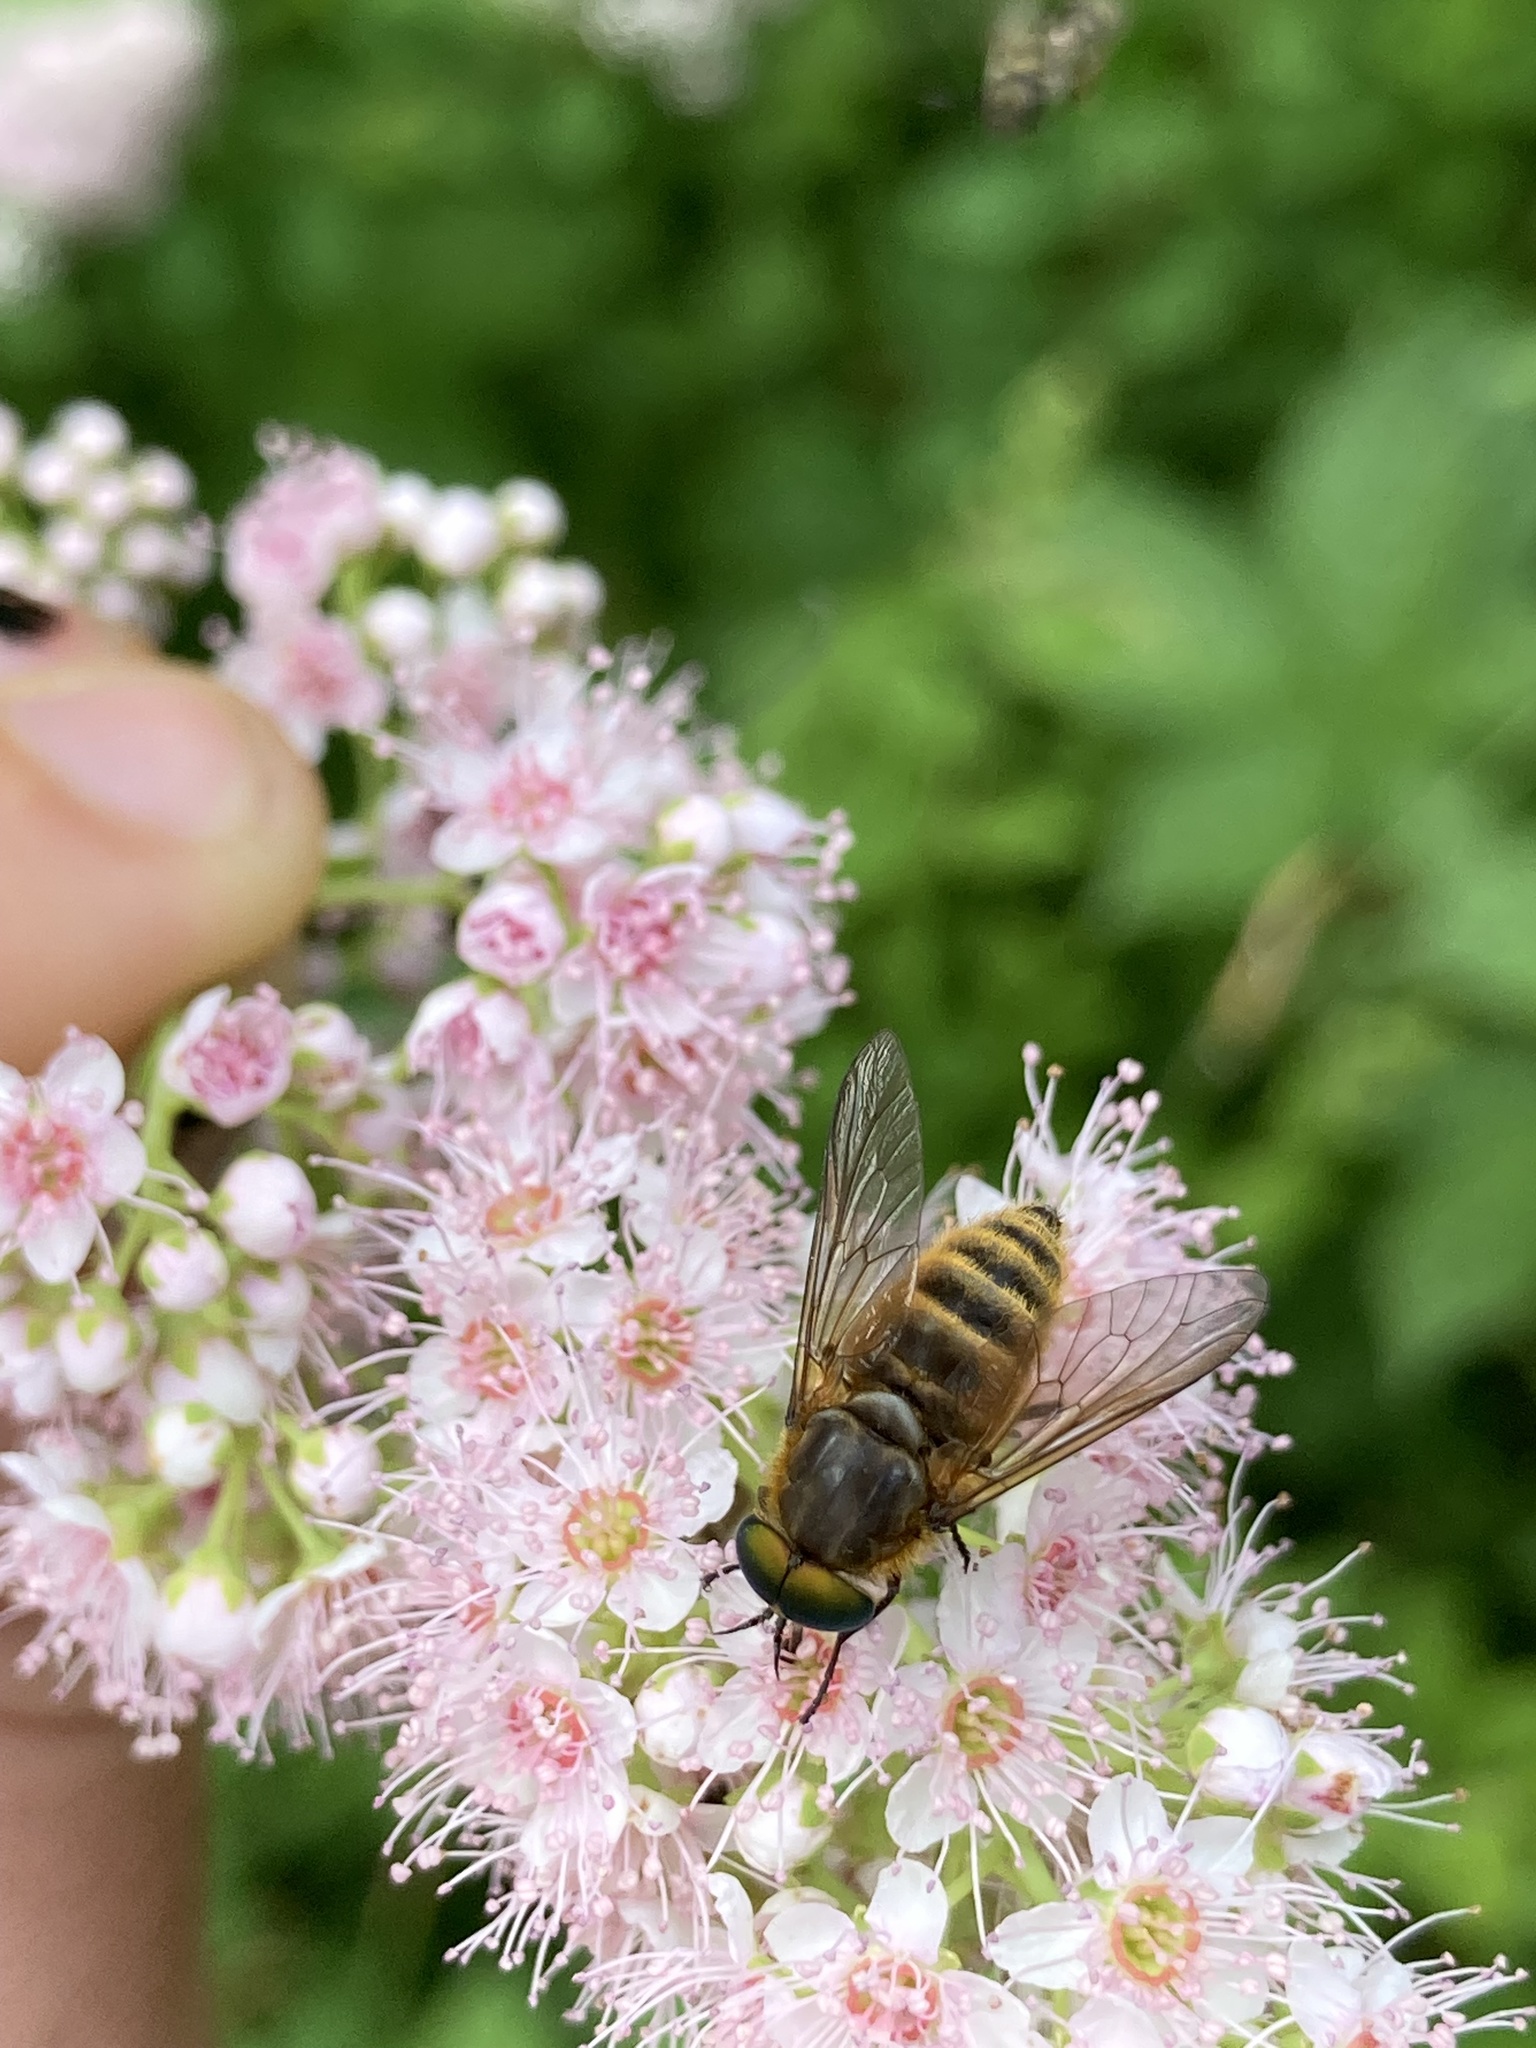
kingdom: Animalia
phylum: Arthropoda
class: Insecta
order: Diptera
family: Tabanidae
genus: Stonemyia
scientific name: Stonemyia tranquilla
